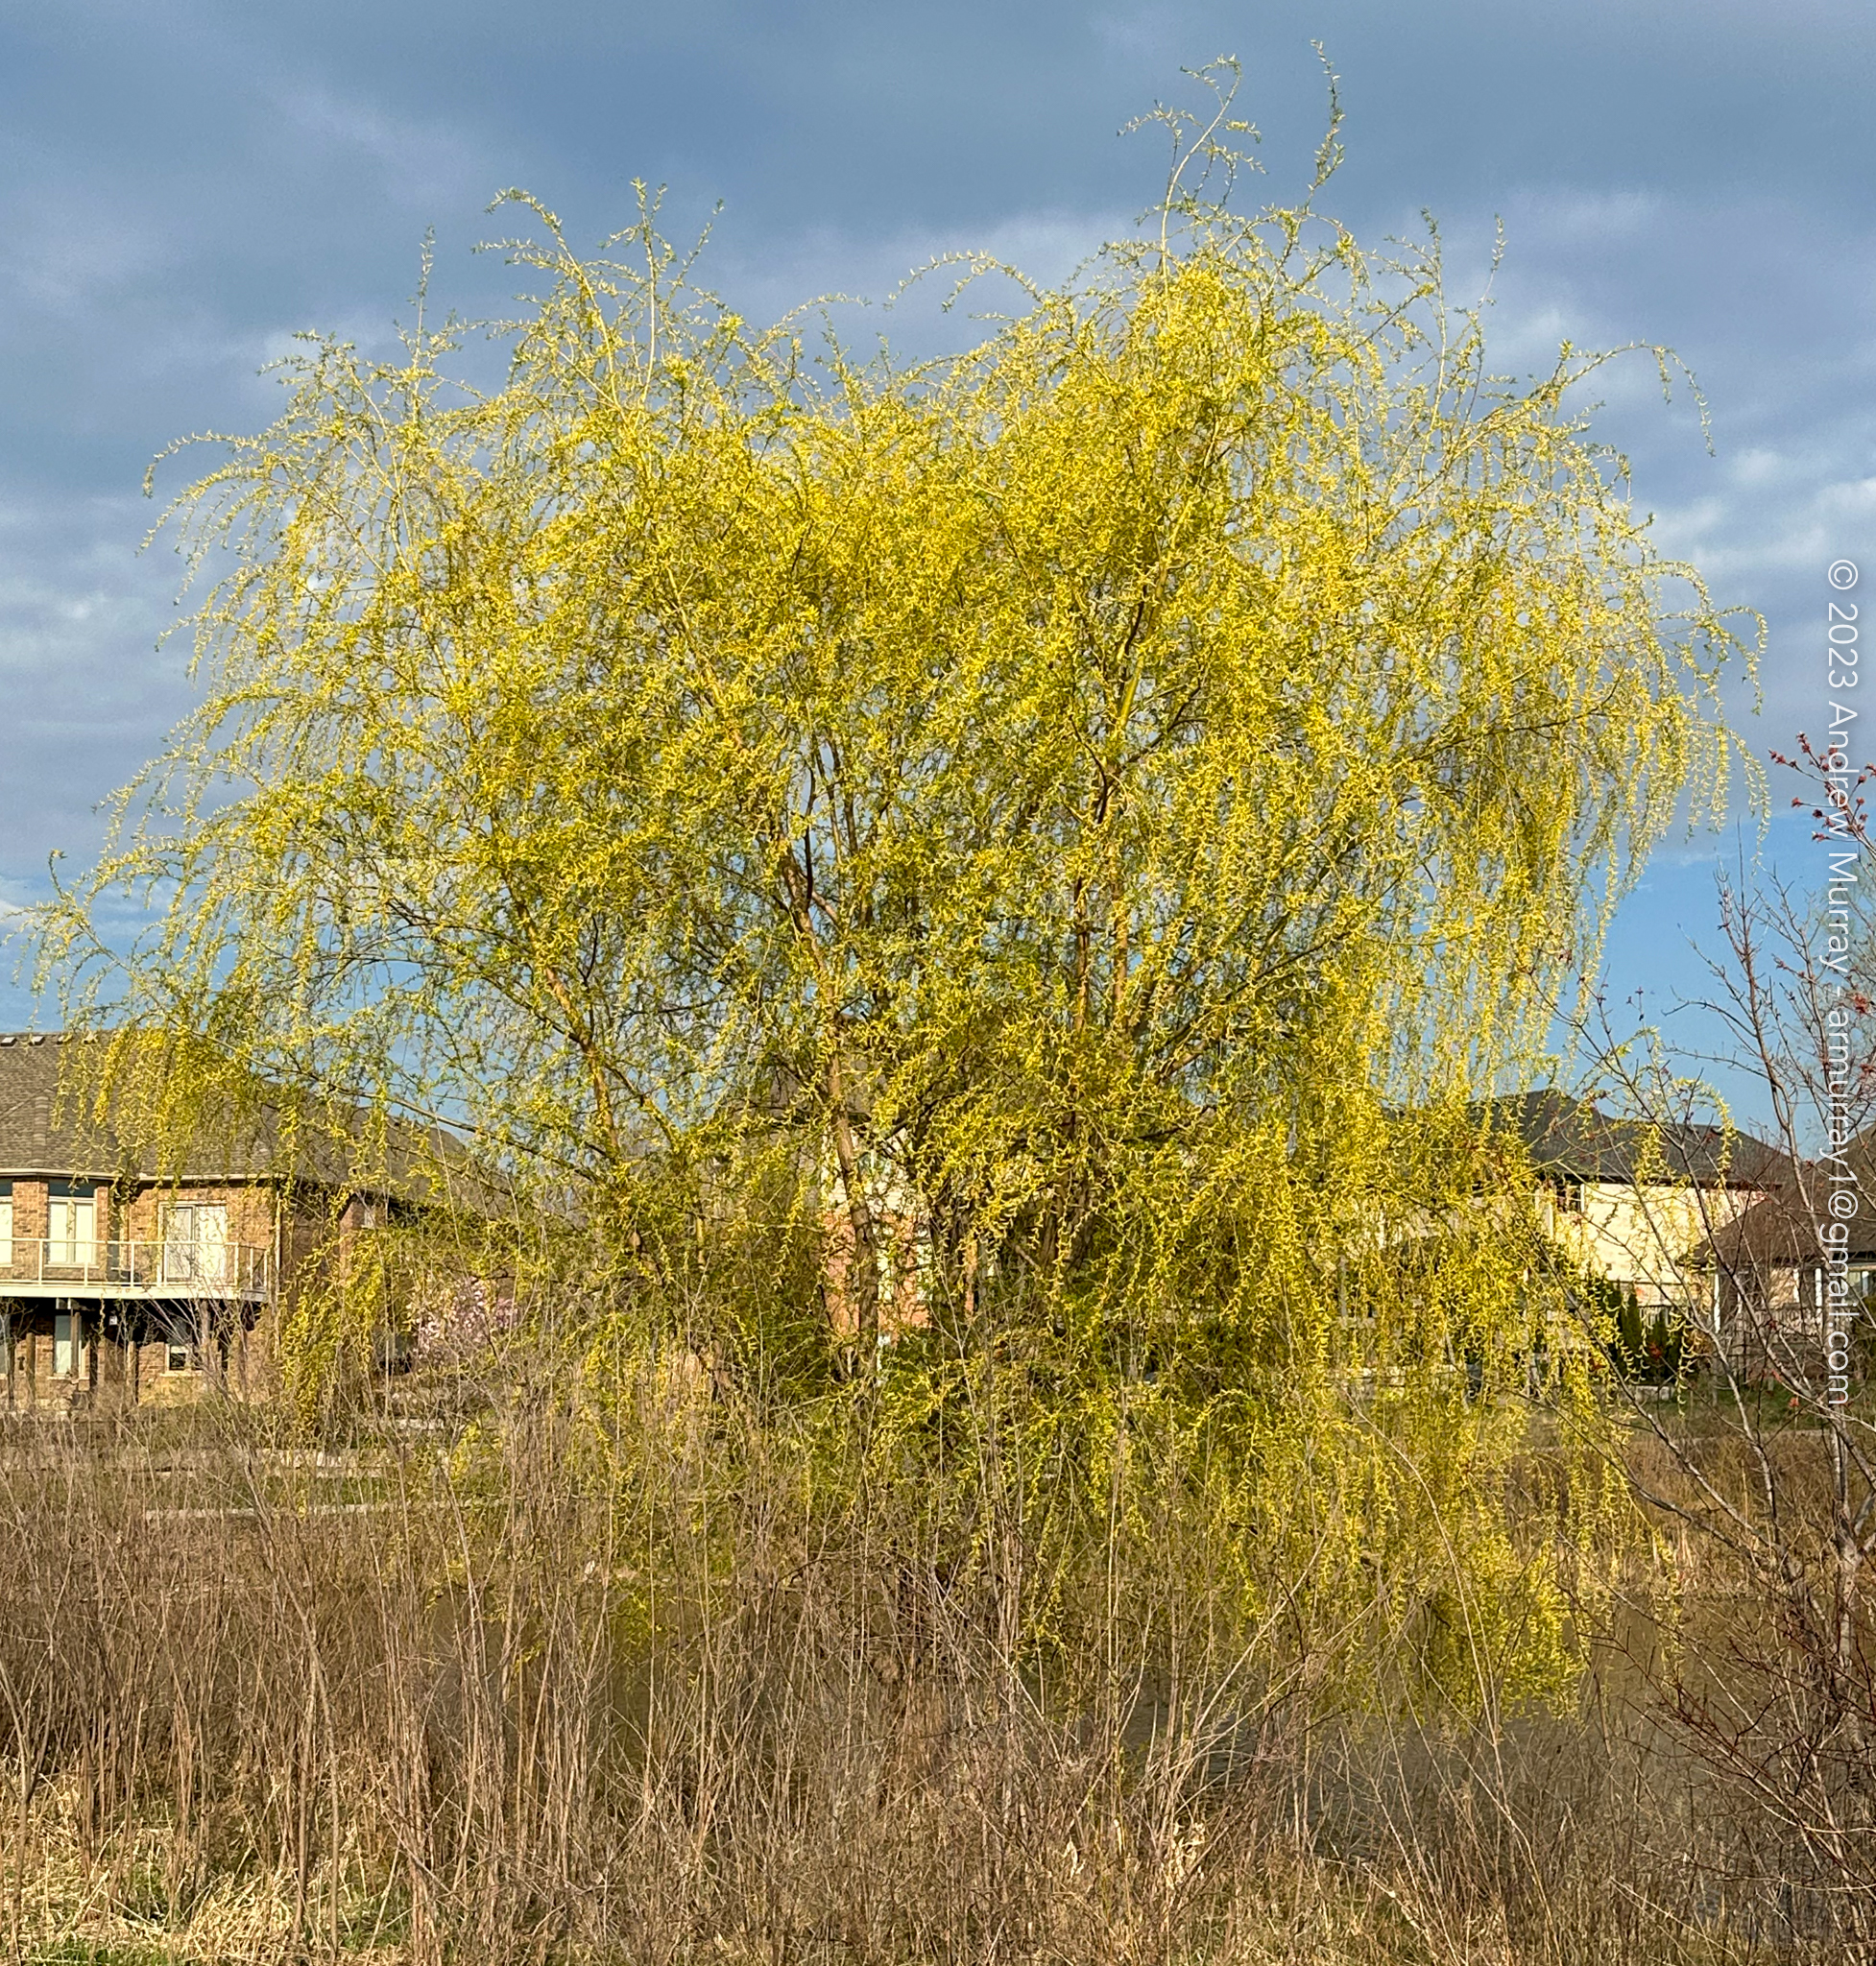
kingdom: Plantae
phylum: Tracheophyta
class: Magnoliopsida
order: Malpighiales
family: Salicaceae
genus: Salix
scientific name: Salix pendulina
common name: Wisconsin weeping willow
